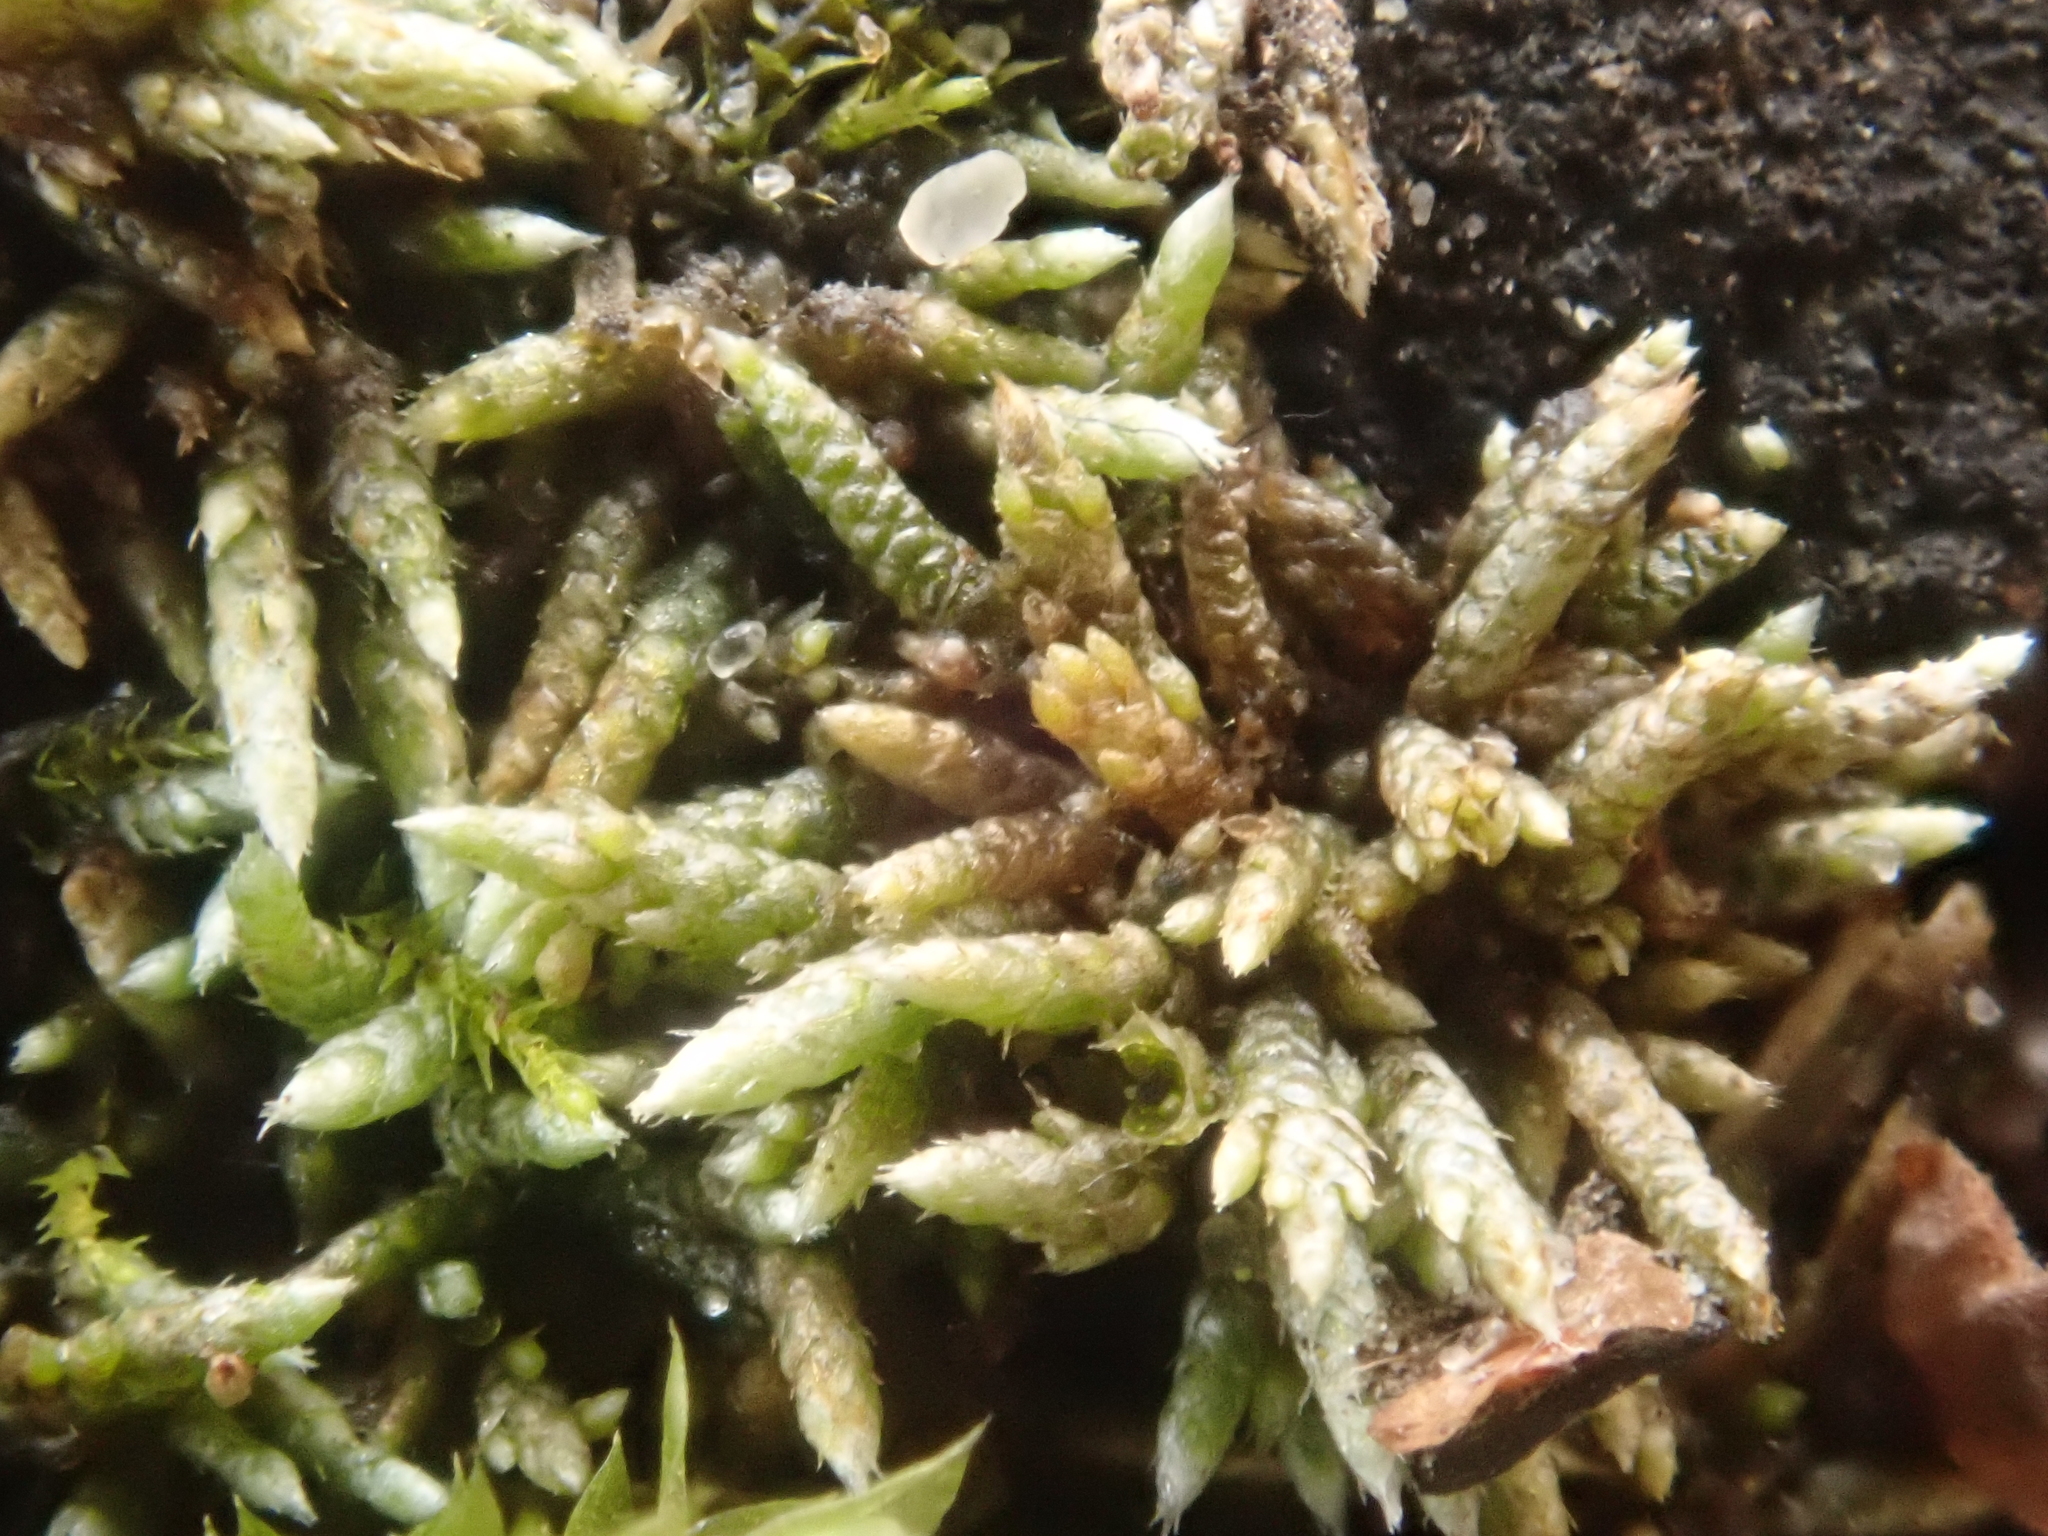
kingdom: Plantae
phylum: Bryophyta
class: Bryopsida
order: Bryales
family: Bryaceae
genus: Bryum
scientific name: Bryum argenteum
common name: Silver-moss
